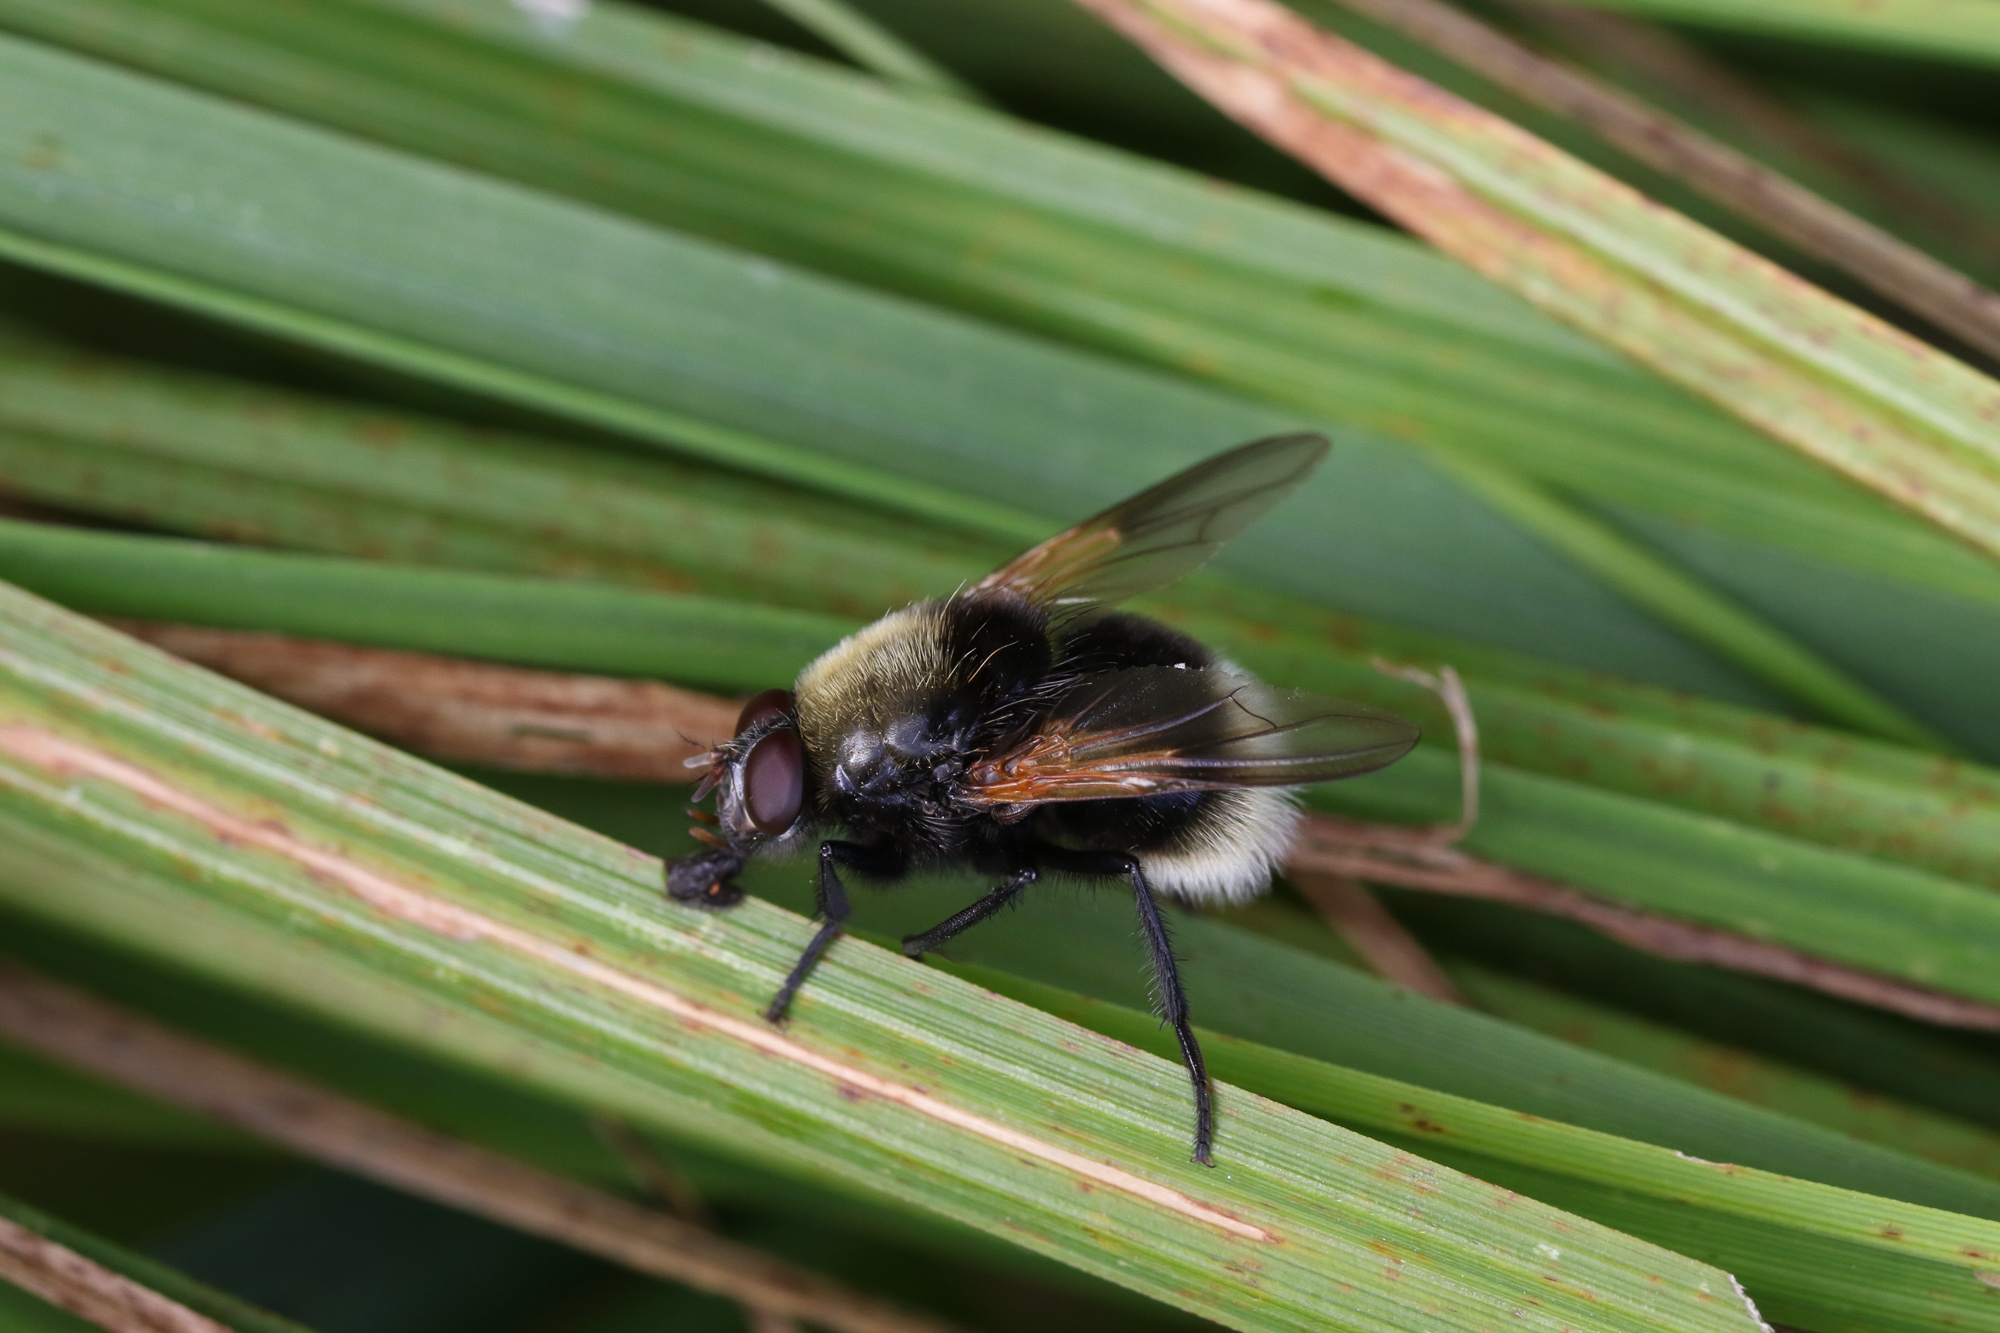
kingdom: Animalia
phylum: Arthropoda
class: Insecta
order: Diptera
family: Muscidae
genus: Mesembrina
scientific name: Mesembrina mystacea
